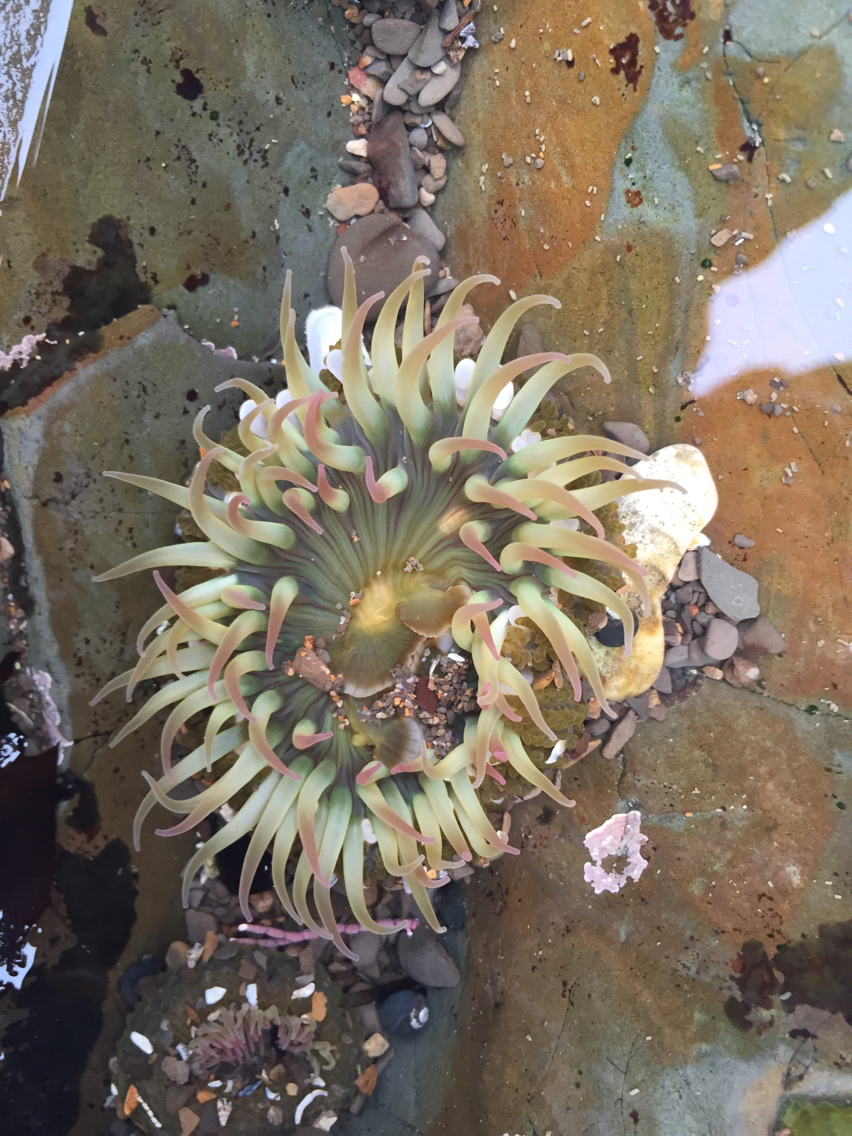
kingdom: Animalia
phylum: Cnidaria
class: Anthozoa
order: Actiniaria
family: Actiniidae
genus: Anthopleura
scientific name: Anthopleura elegantissima
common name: Clonal anemone
